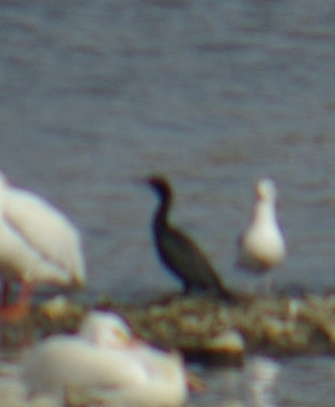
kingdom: Animalia
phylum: Chordata
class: Aves
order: Suliformes
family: Phalacrocoracidae
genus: Phalacrocorax
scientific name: Phalacrocorax auritus
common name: Double-crested cormorant
